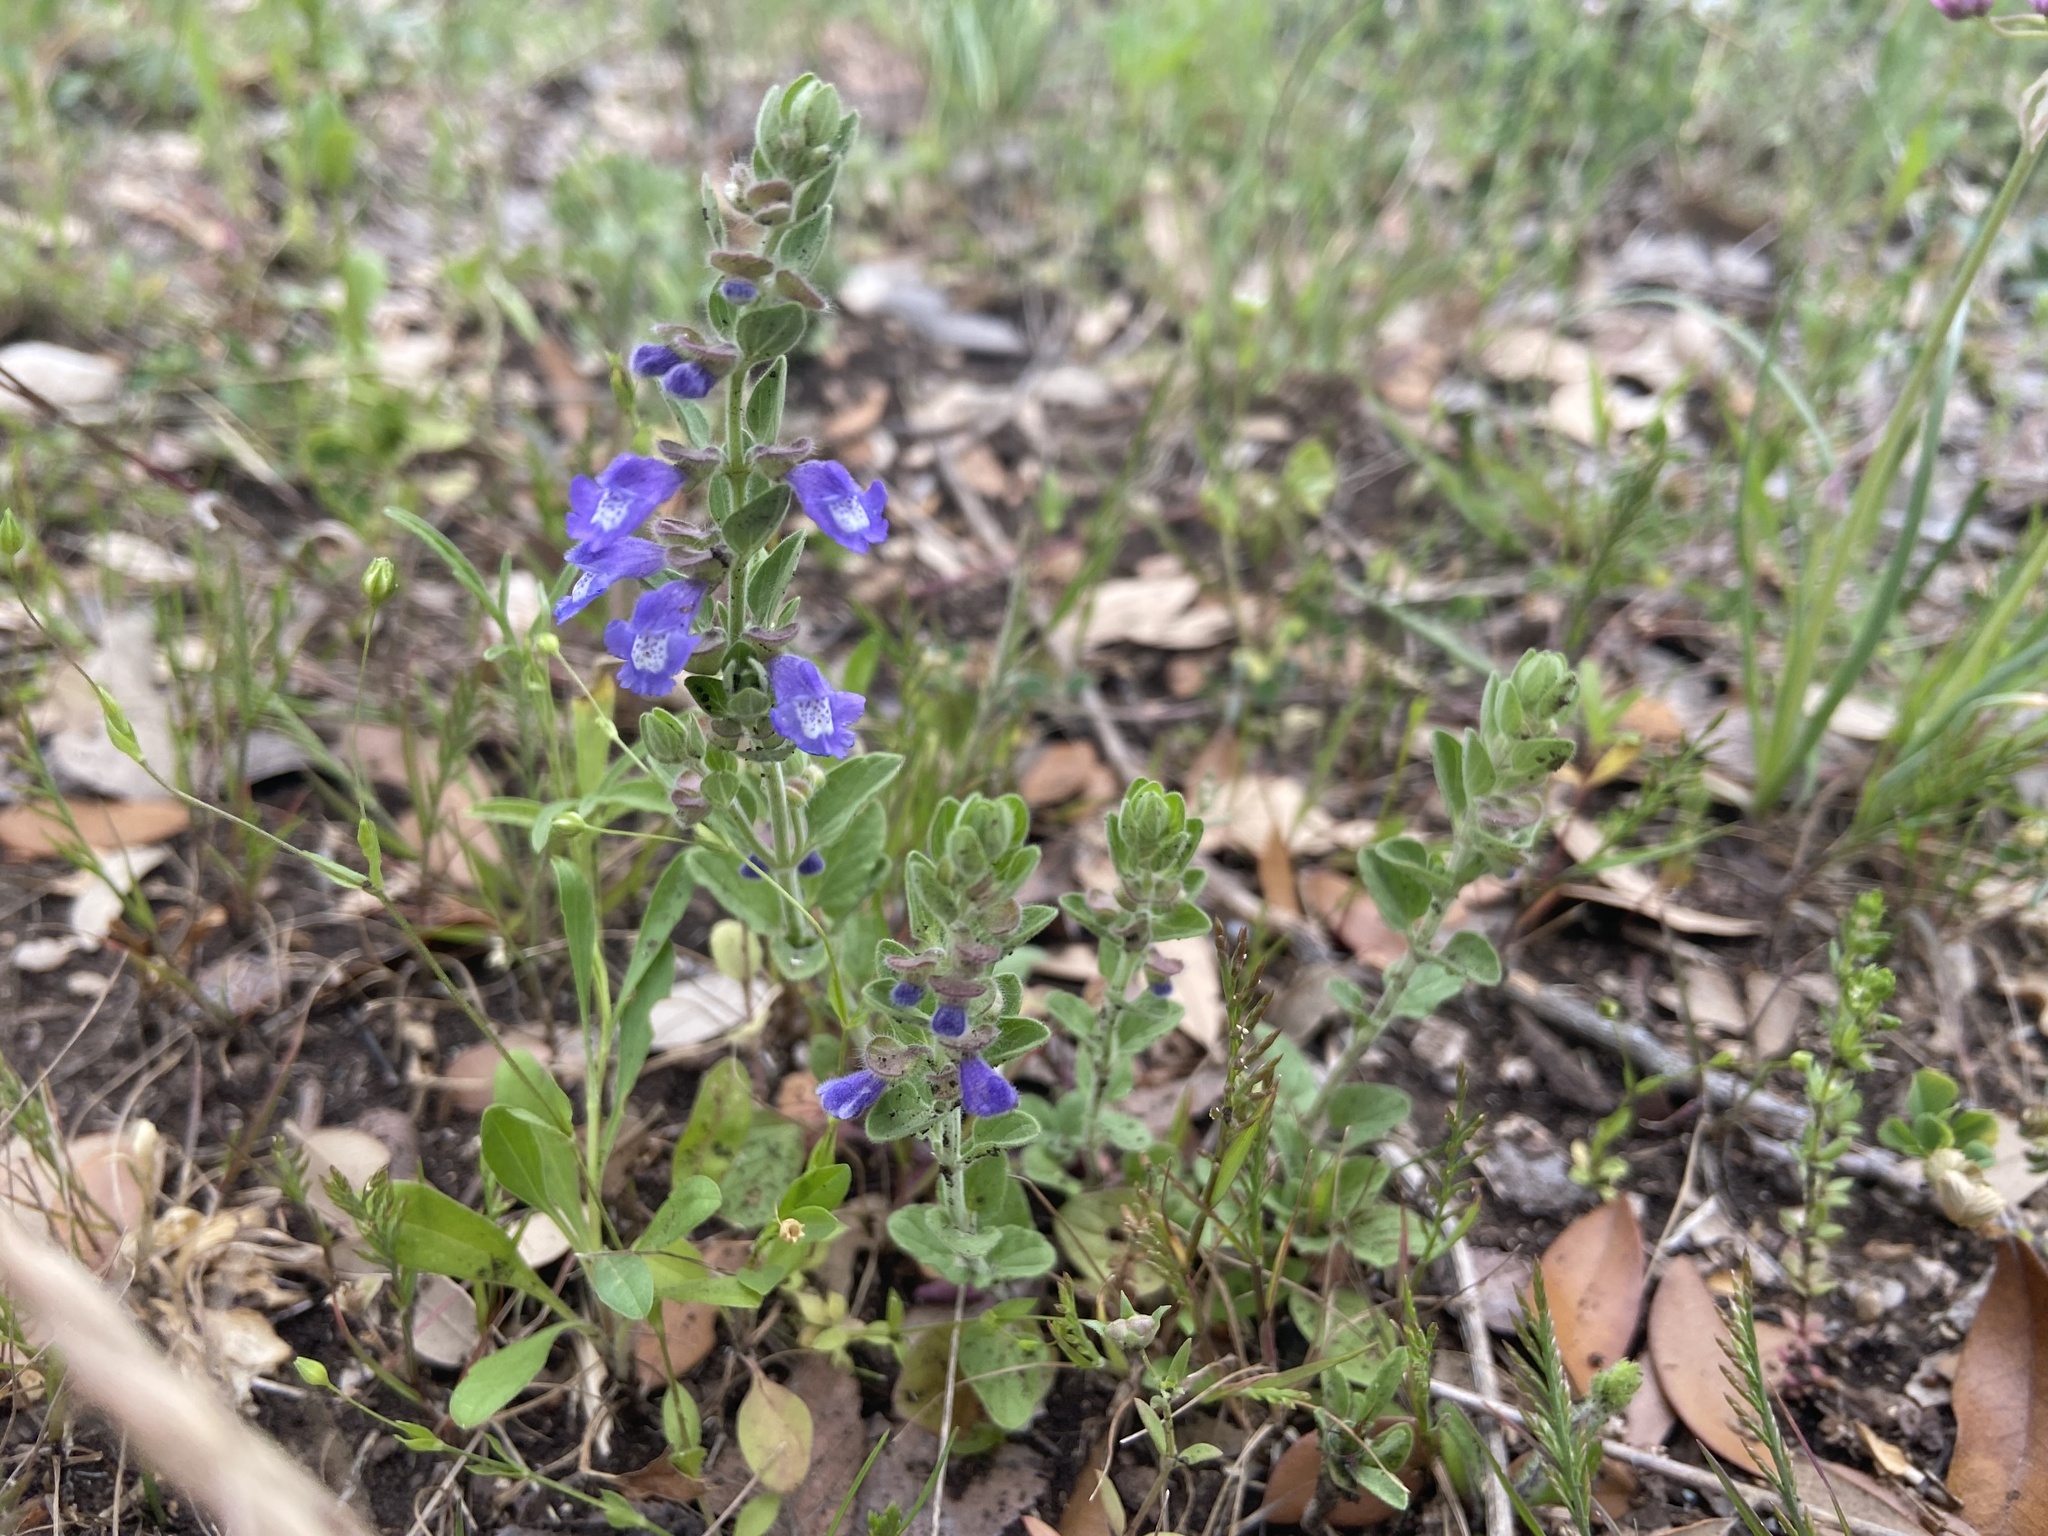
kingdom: Plantae
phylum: Tracheophyta
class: Magnoliopsida
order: Lamiales
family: Lamiaceae
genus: Scutellaria
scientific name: Scutellaria drummondii
